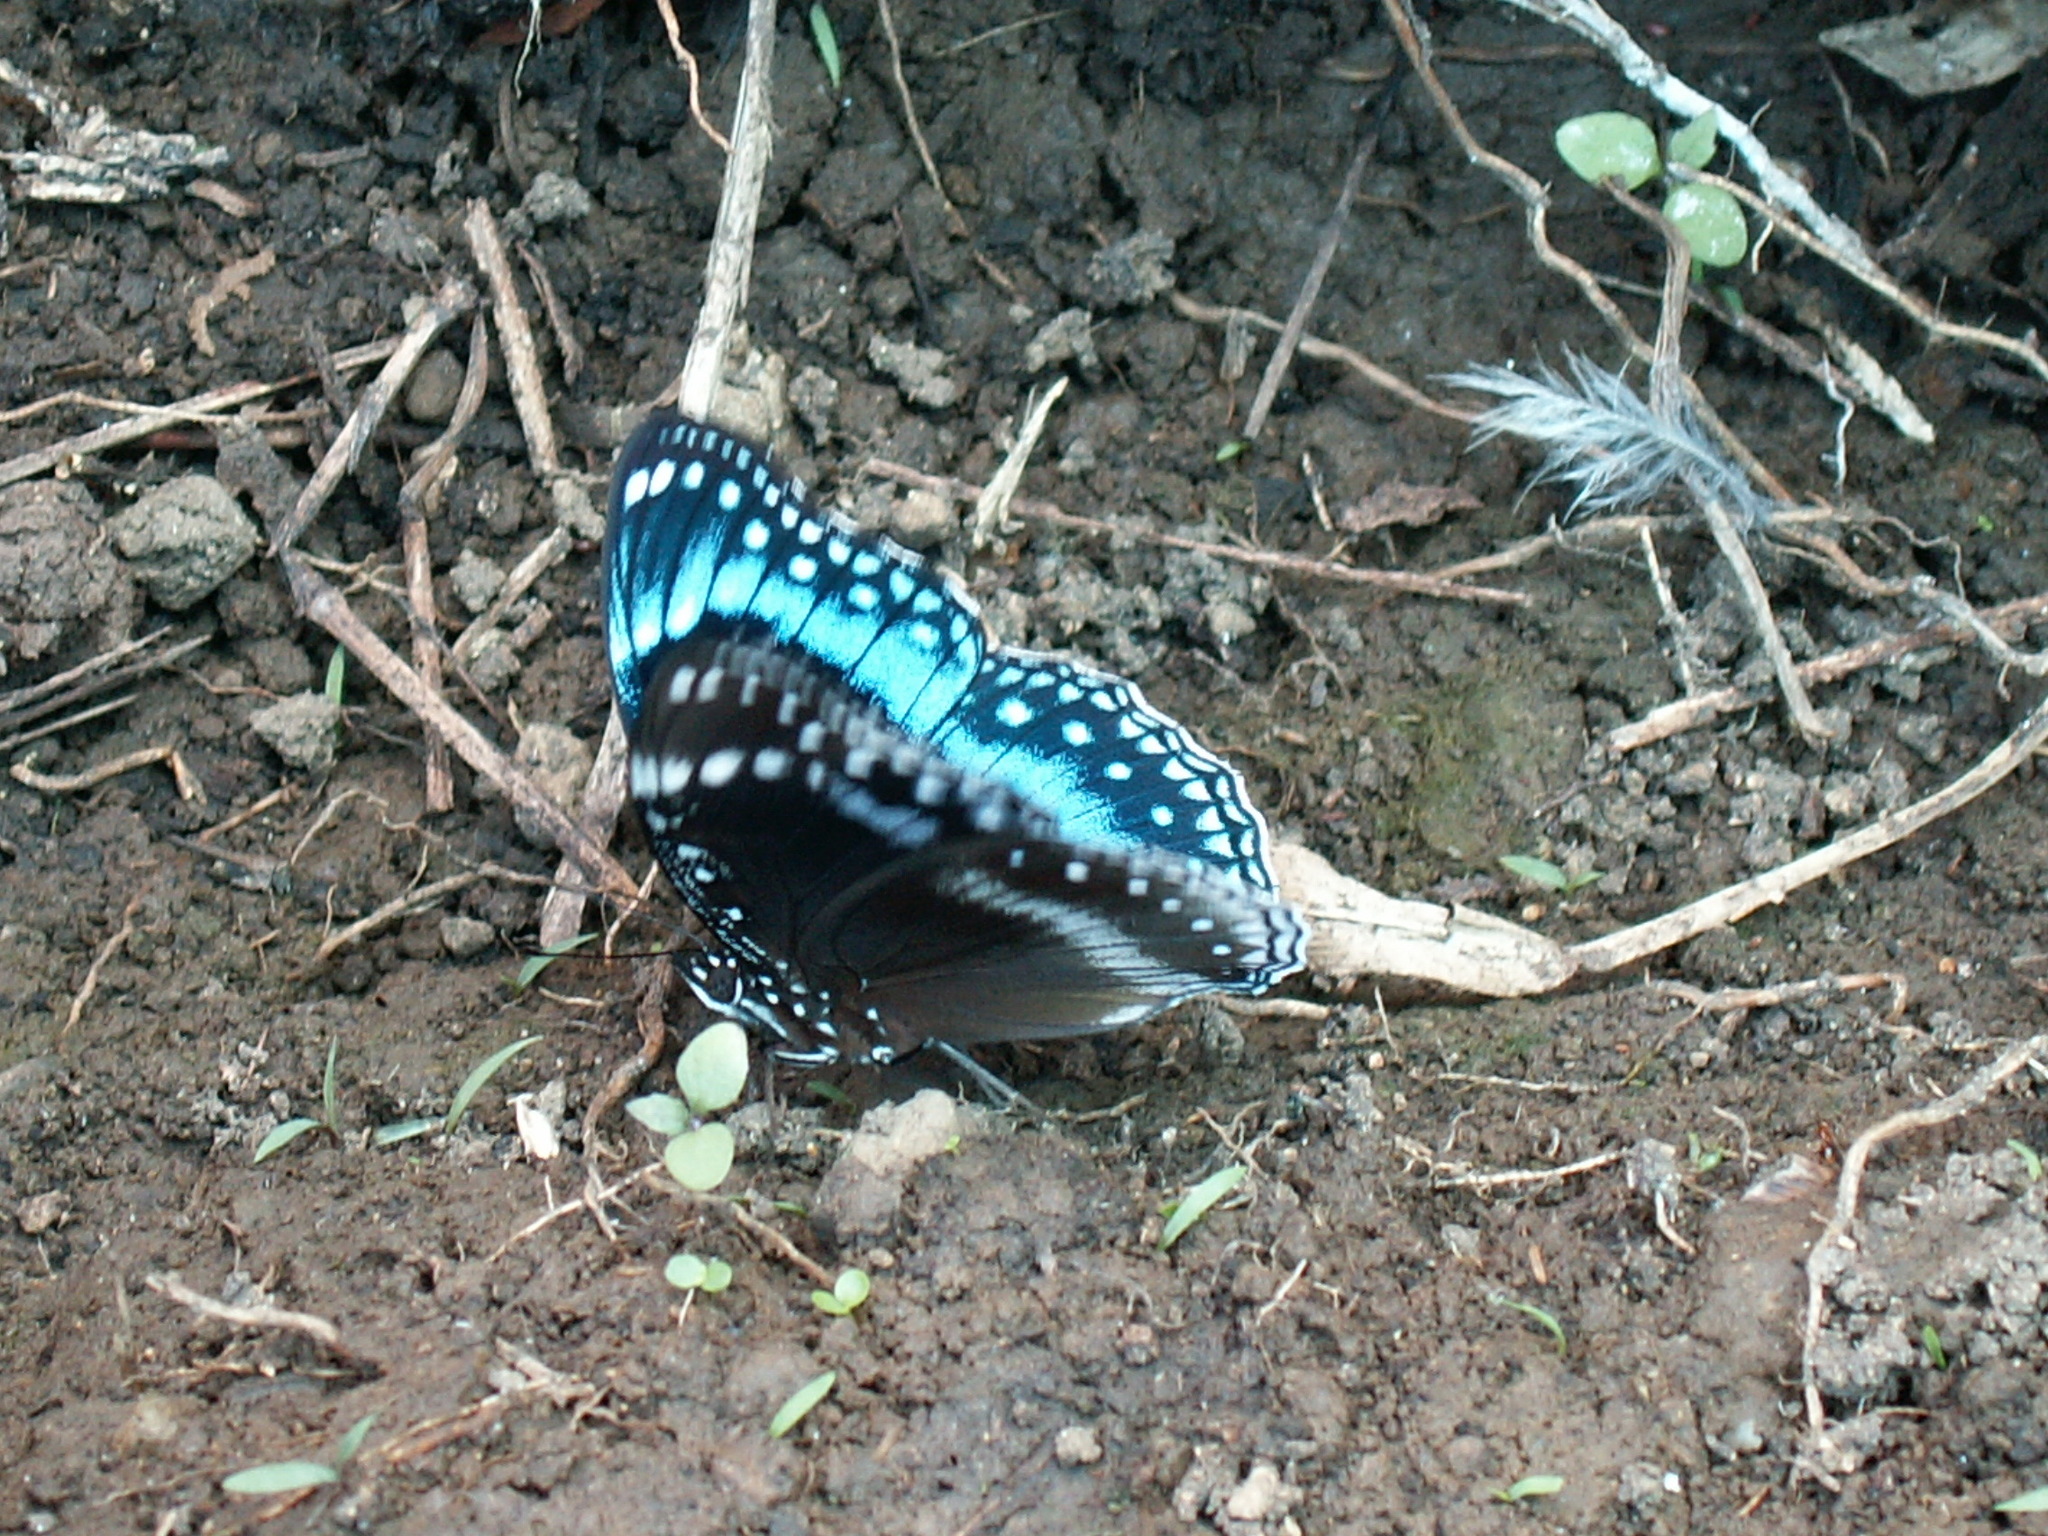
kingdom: Animalia
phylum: Arthropoda
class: Insecta
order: Lepidoptera
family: Nymphalidae
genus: Hypolimnas
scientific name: Hypolimnas alimena
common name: Blue-banded eggfly
